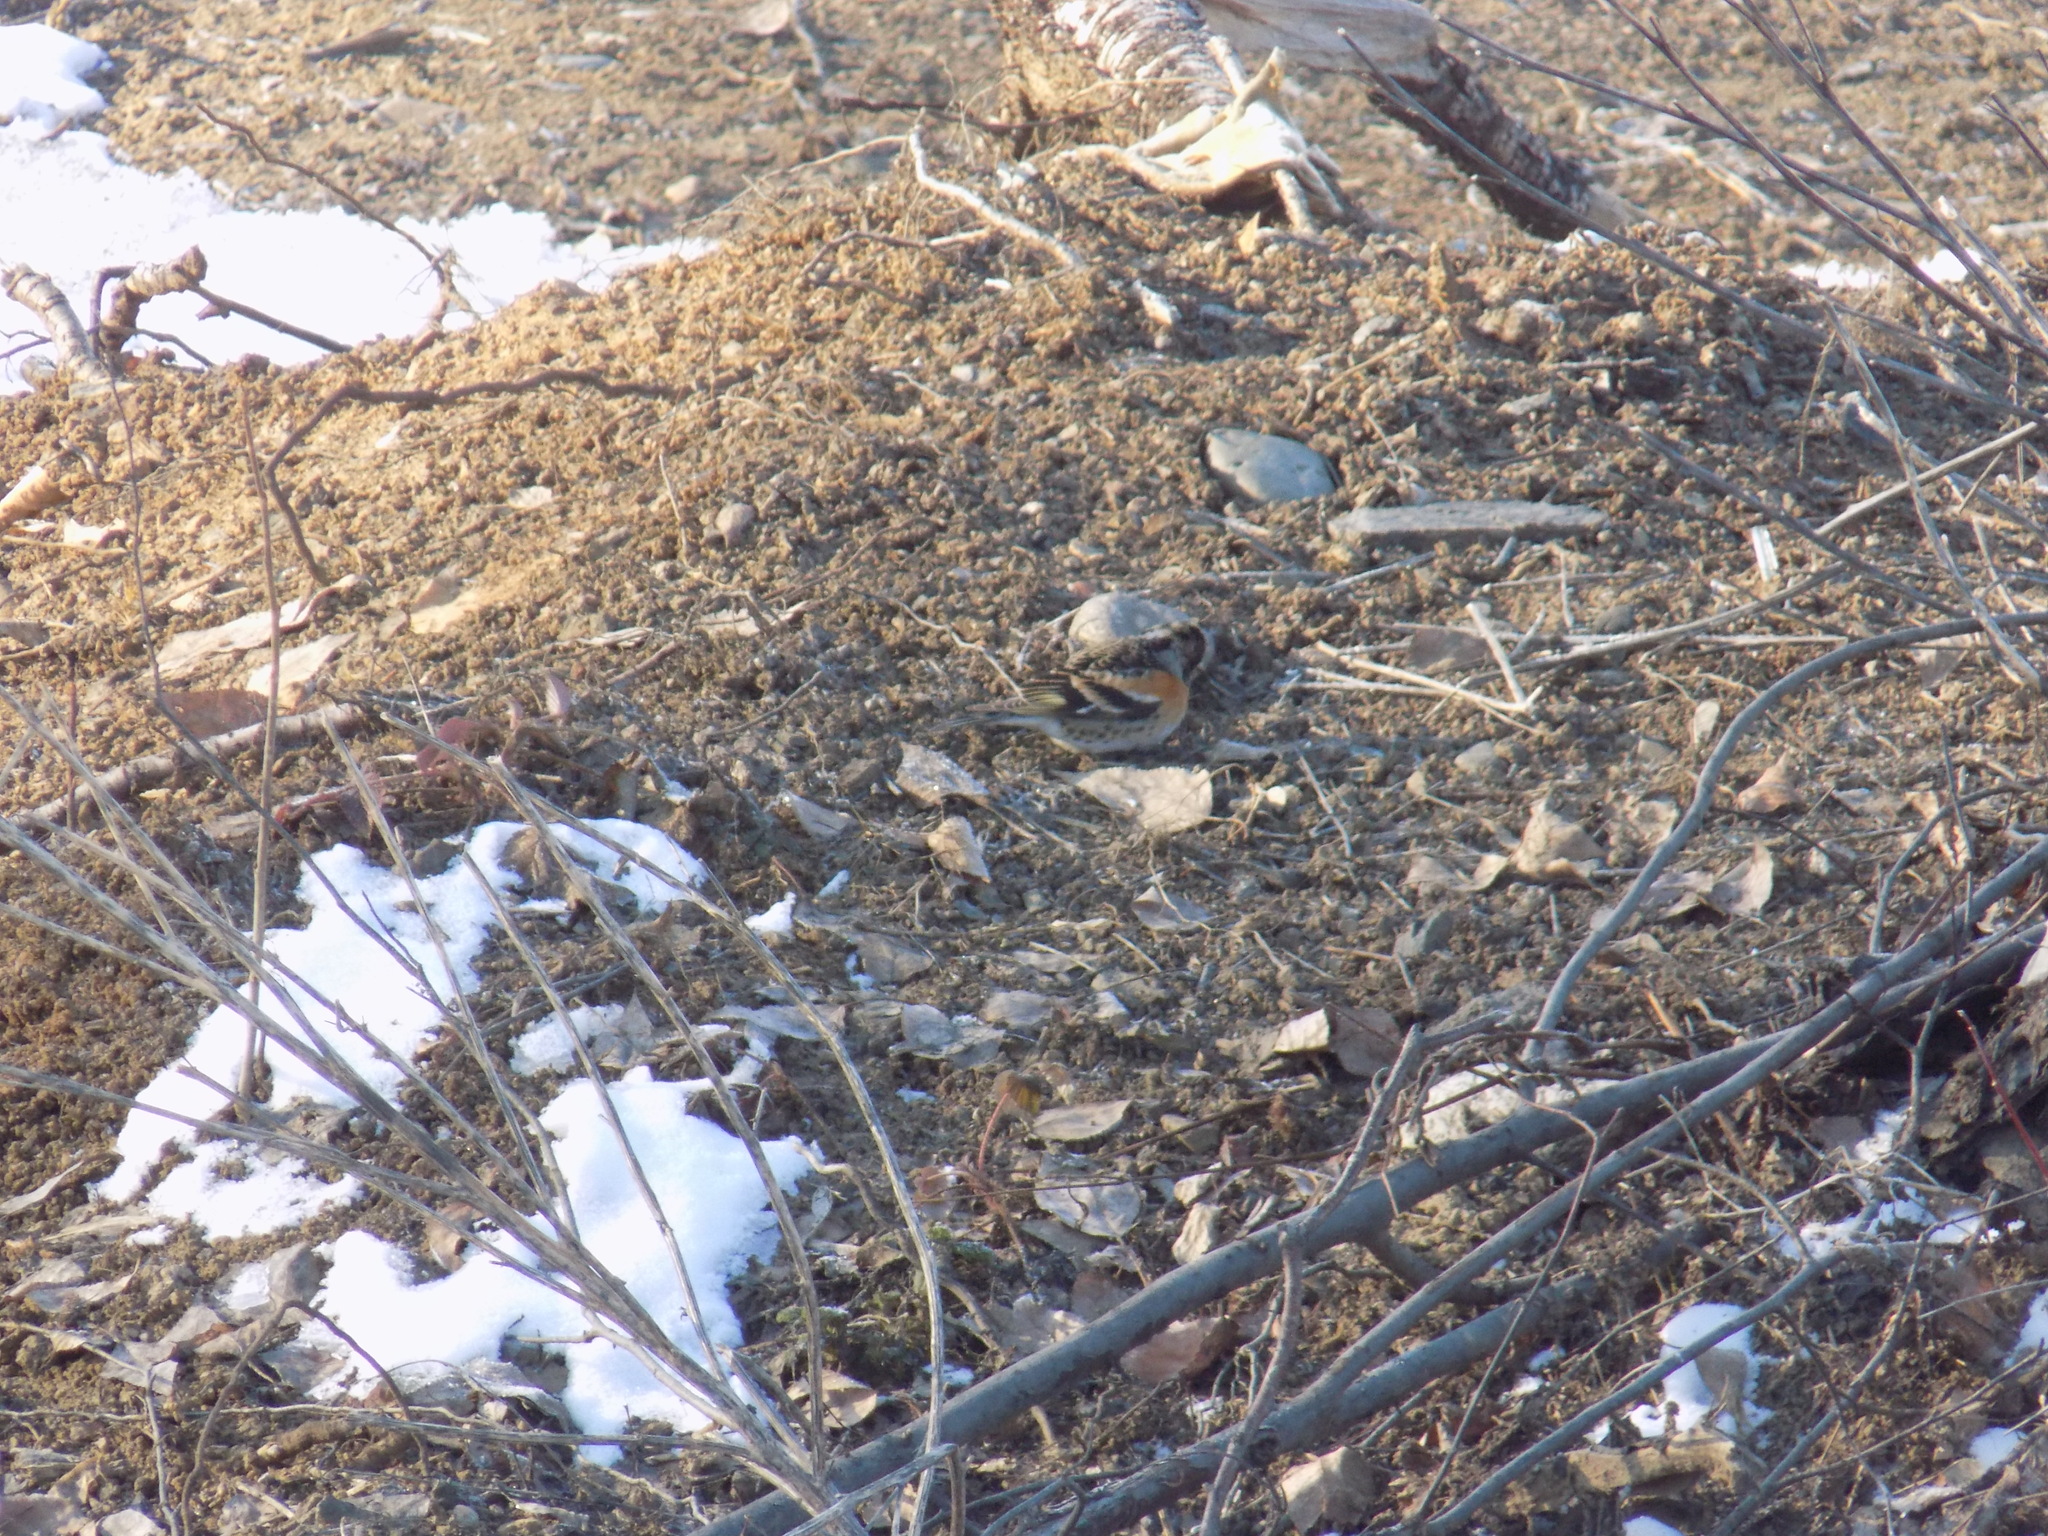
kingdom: Animalia
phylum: Chordata
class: Aves
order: Passeriformes
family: Fringillidae
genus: Fringilla
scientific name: Fringilla montifringilla
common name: Brambling
